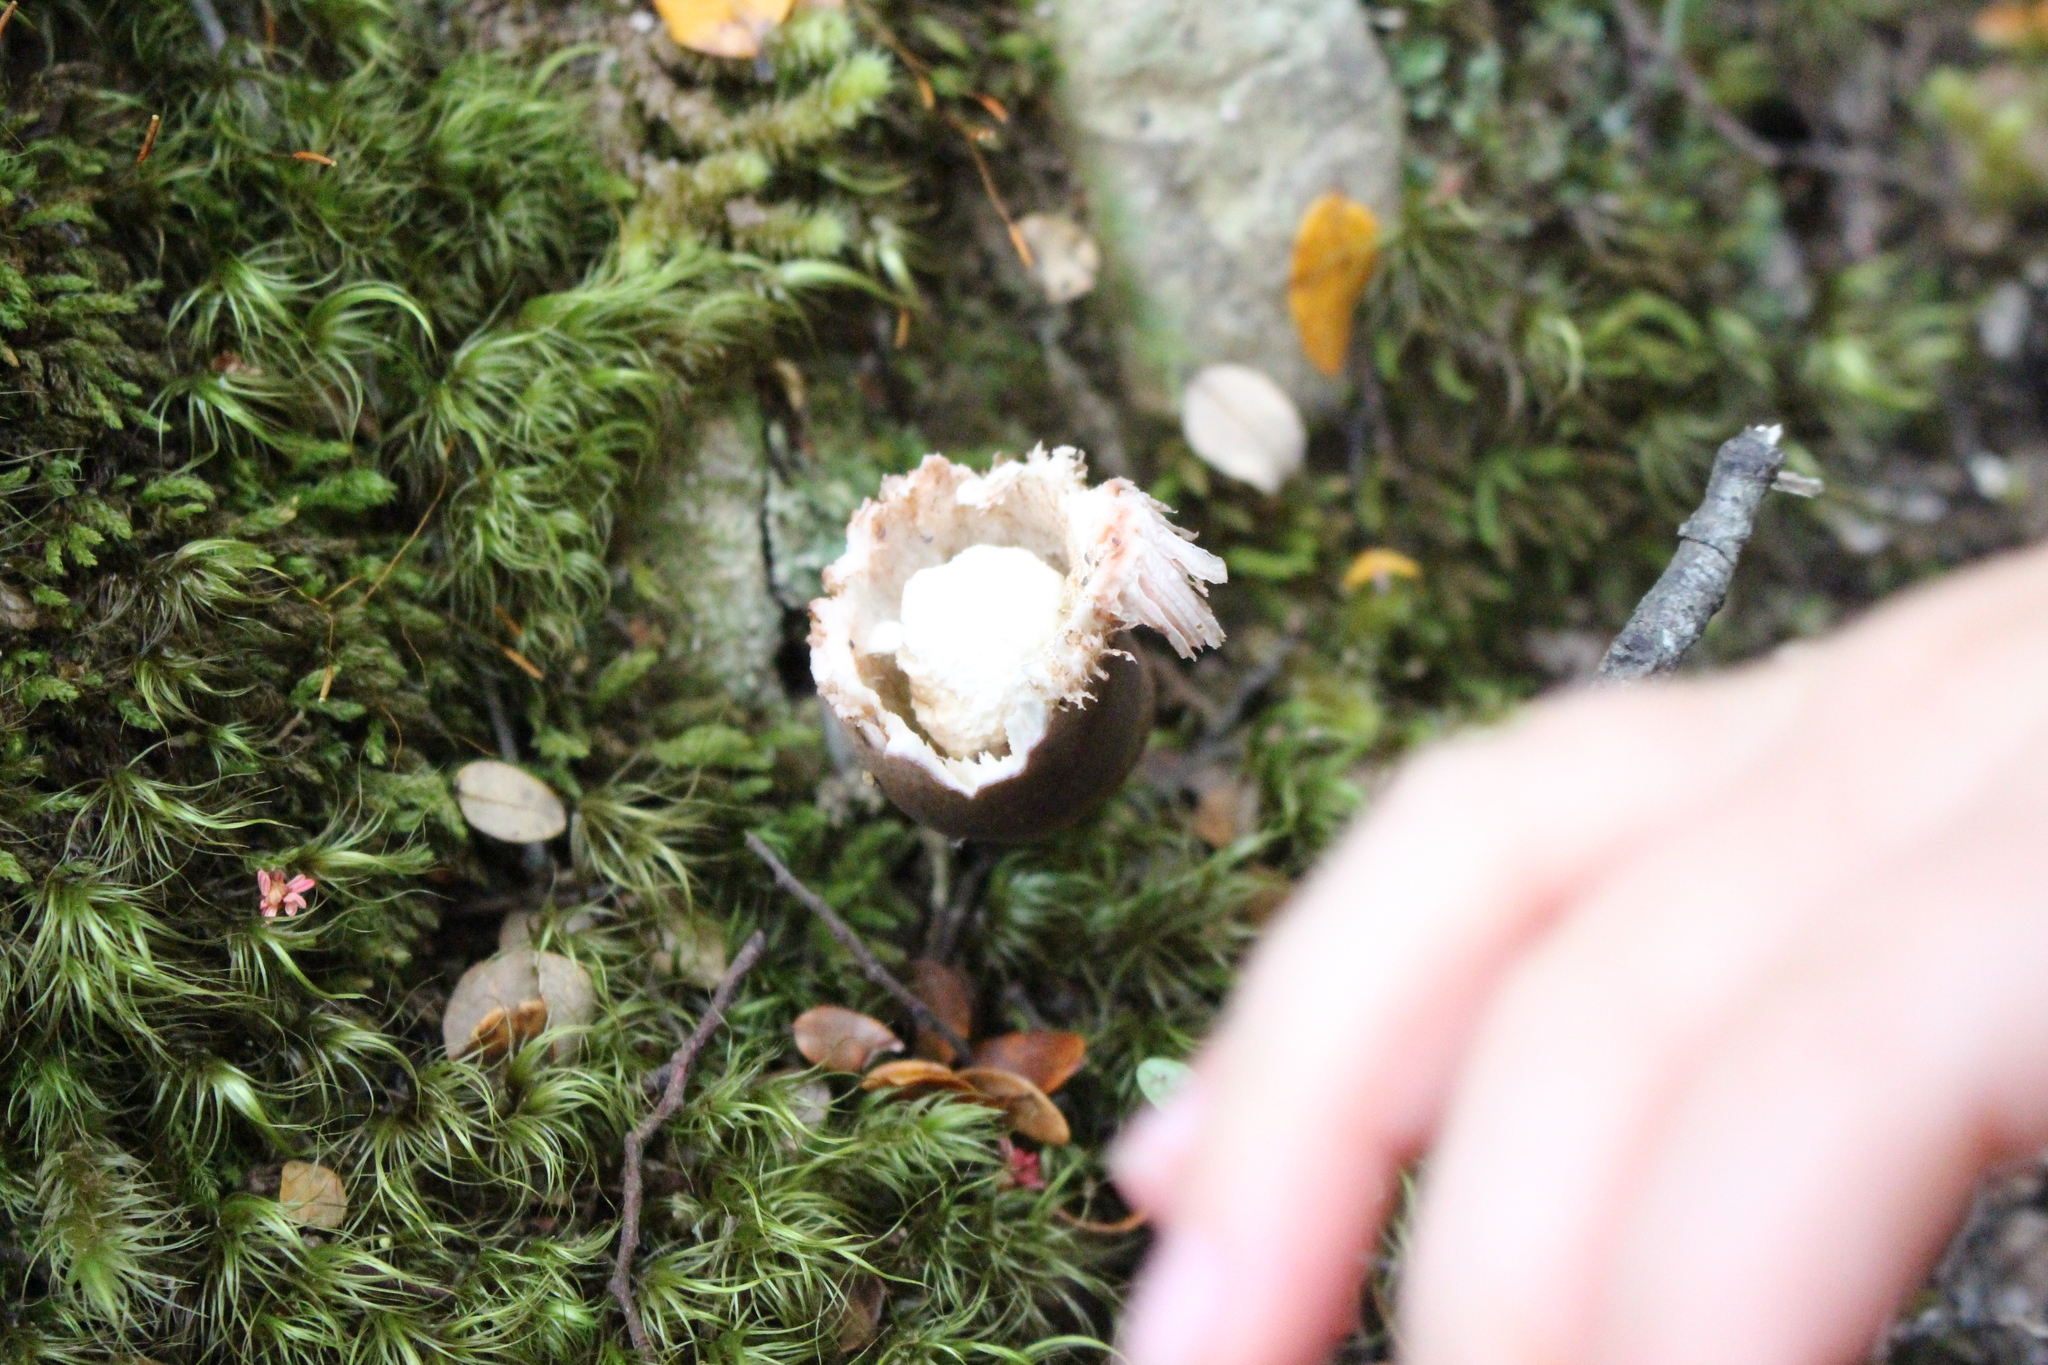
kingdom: Fungi
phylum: Basidiomycota
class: Agaricomycetes
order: Boletales
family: Boletaceae
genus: Porphyrellus
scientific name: Porphyrellus formosus
